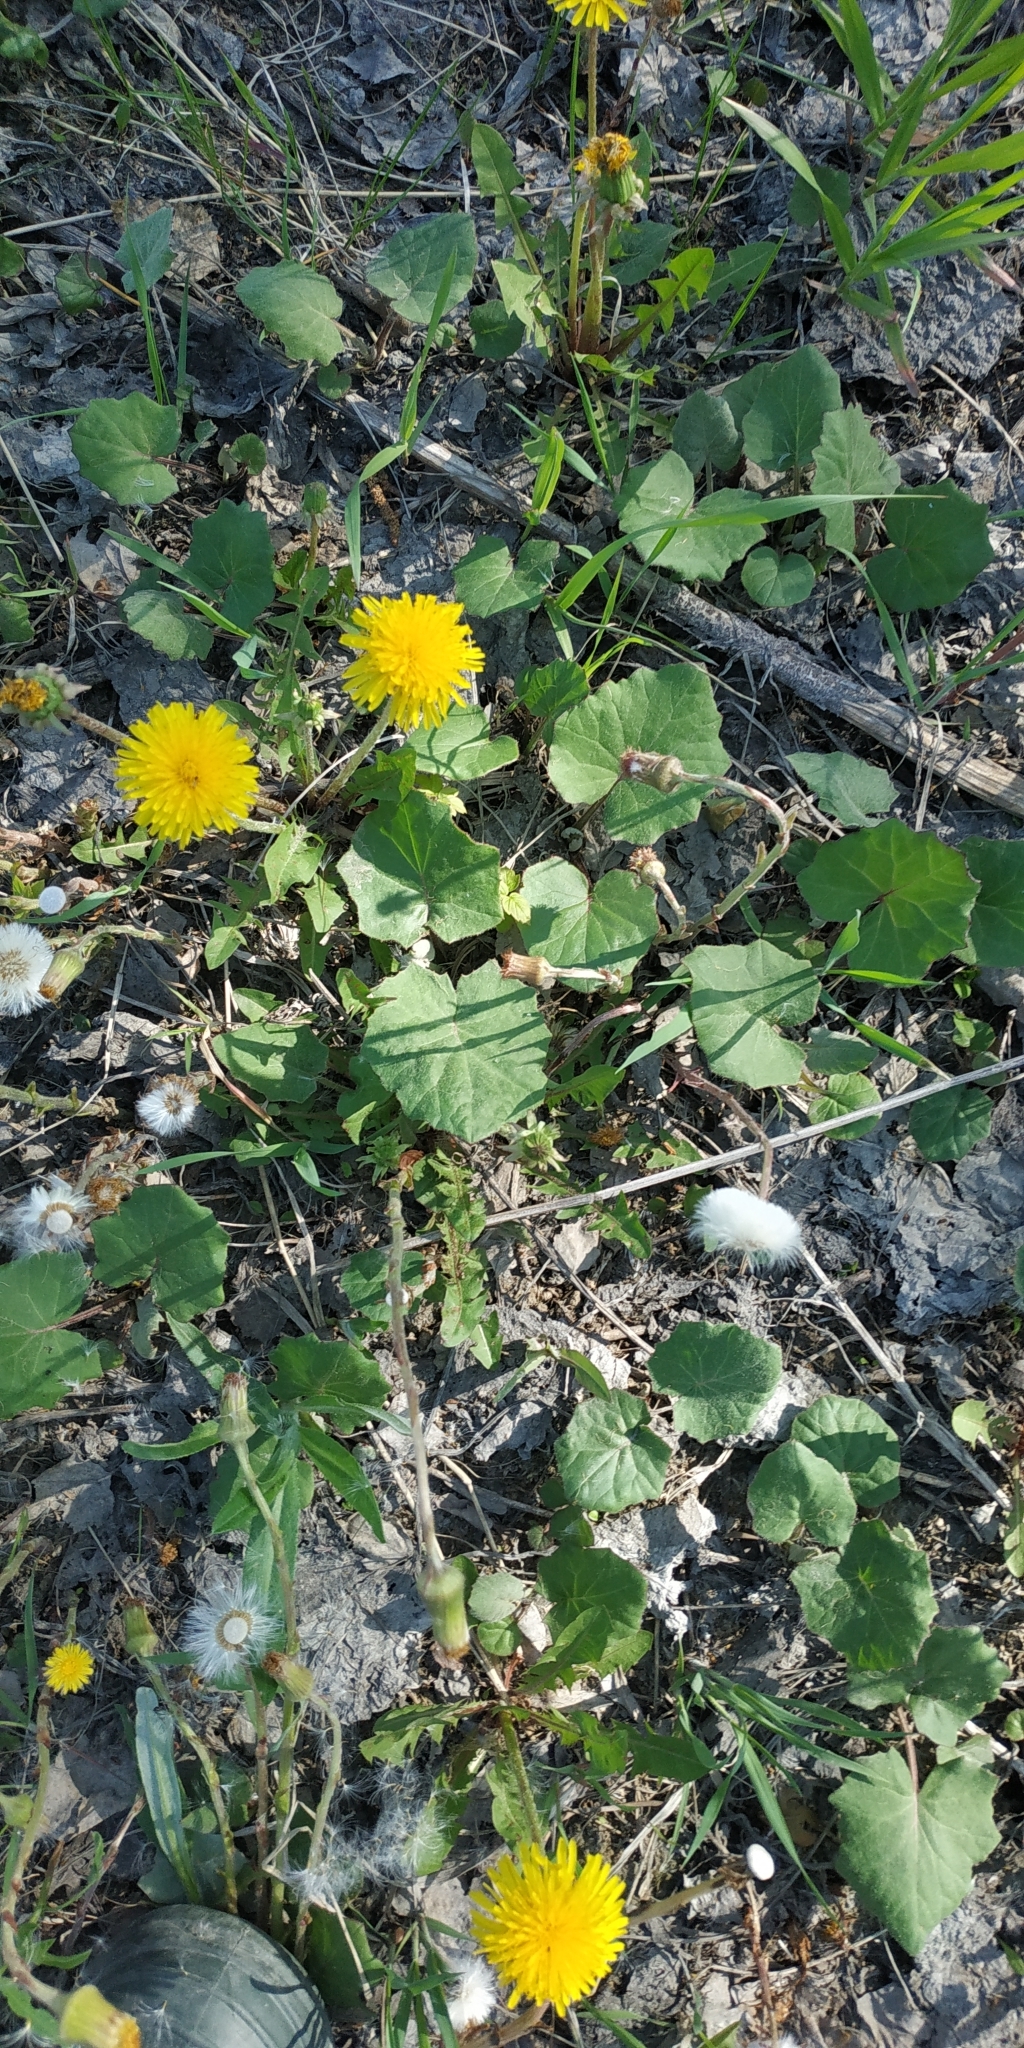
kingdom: Plantae
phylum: Tracheophyta
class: Magnoliopsida
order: Asterales
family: Asteraceae
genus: Tussilago
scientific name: Tussilago farfara
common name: Coltsfoot
